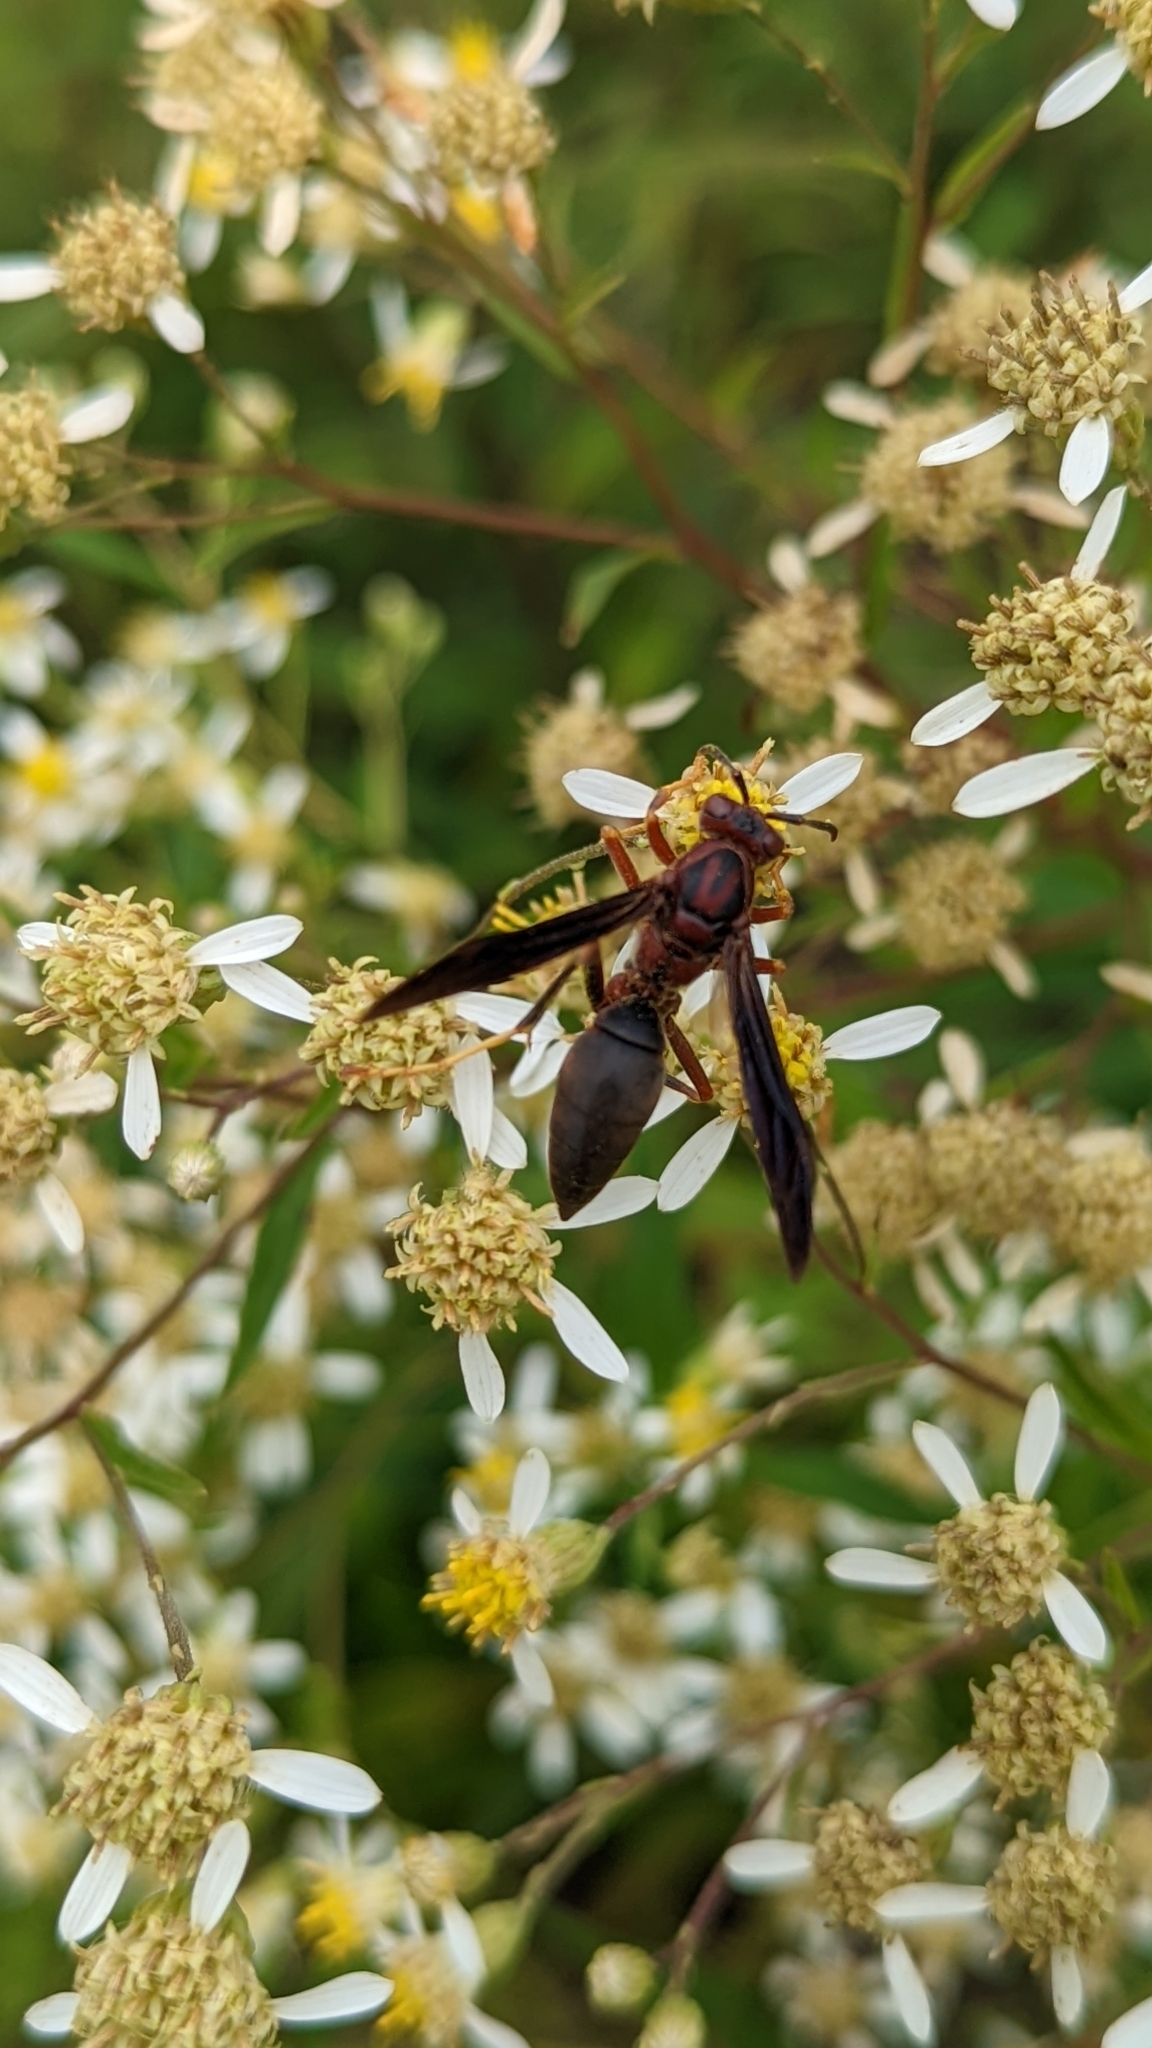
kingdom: Animalia
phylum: Arthropoda
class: Insecta
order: Hymenoptera
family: Eumenidae
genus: Polistes
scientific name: Polistes metricus
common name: Metric paper wasp
